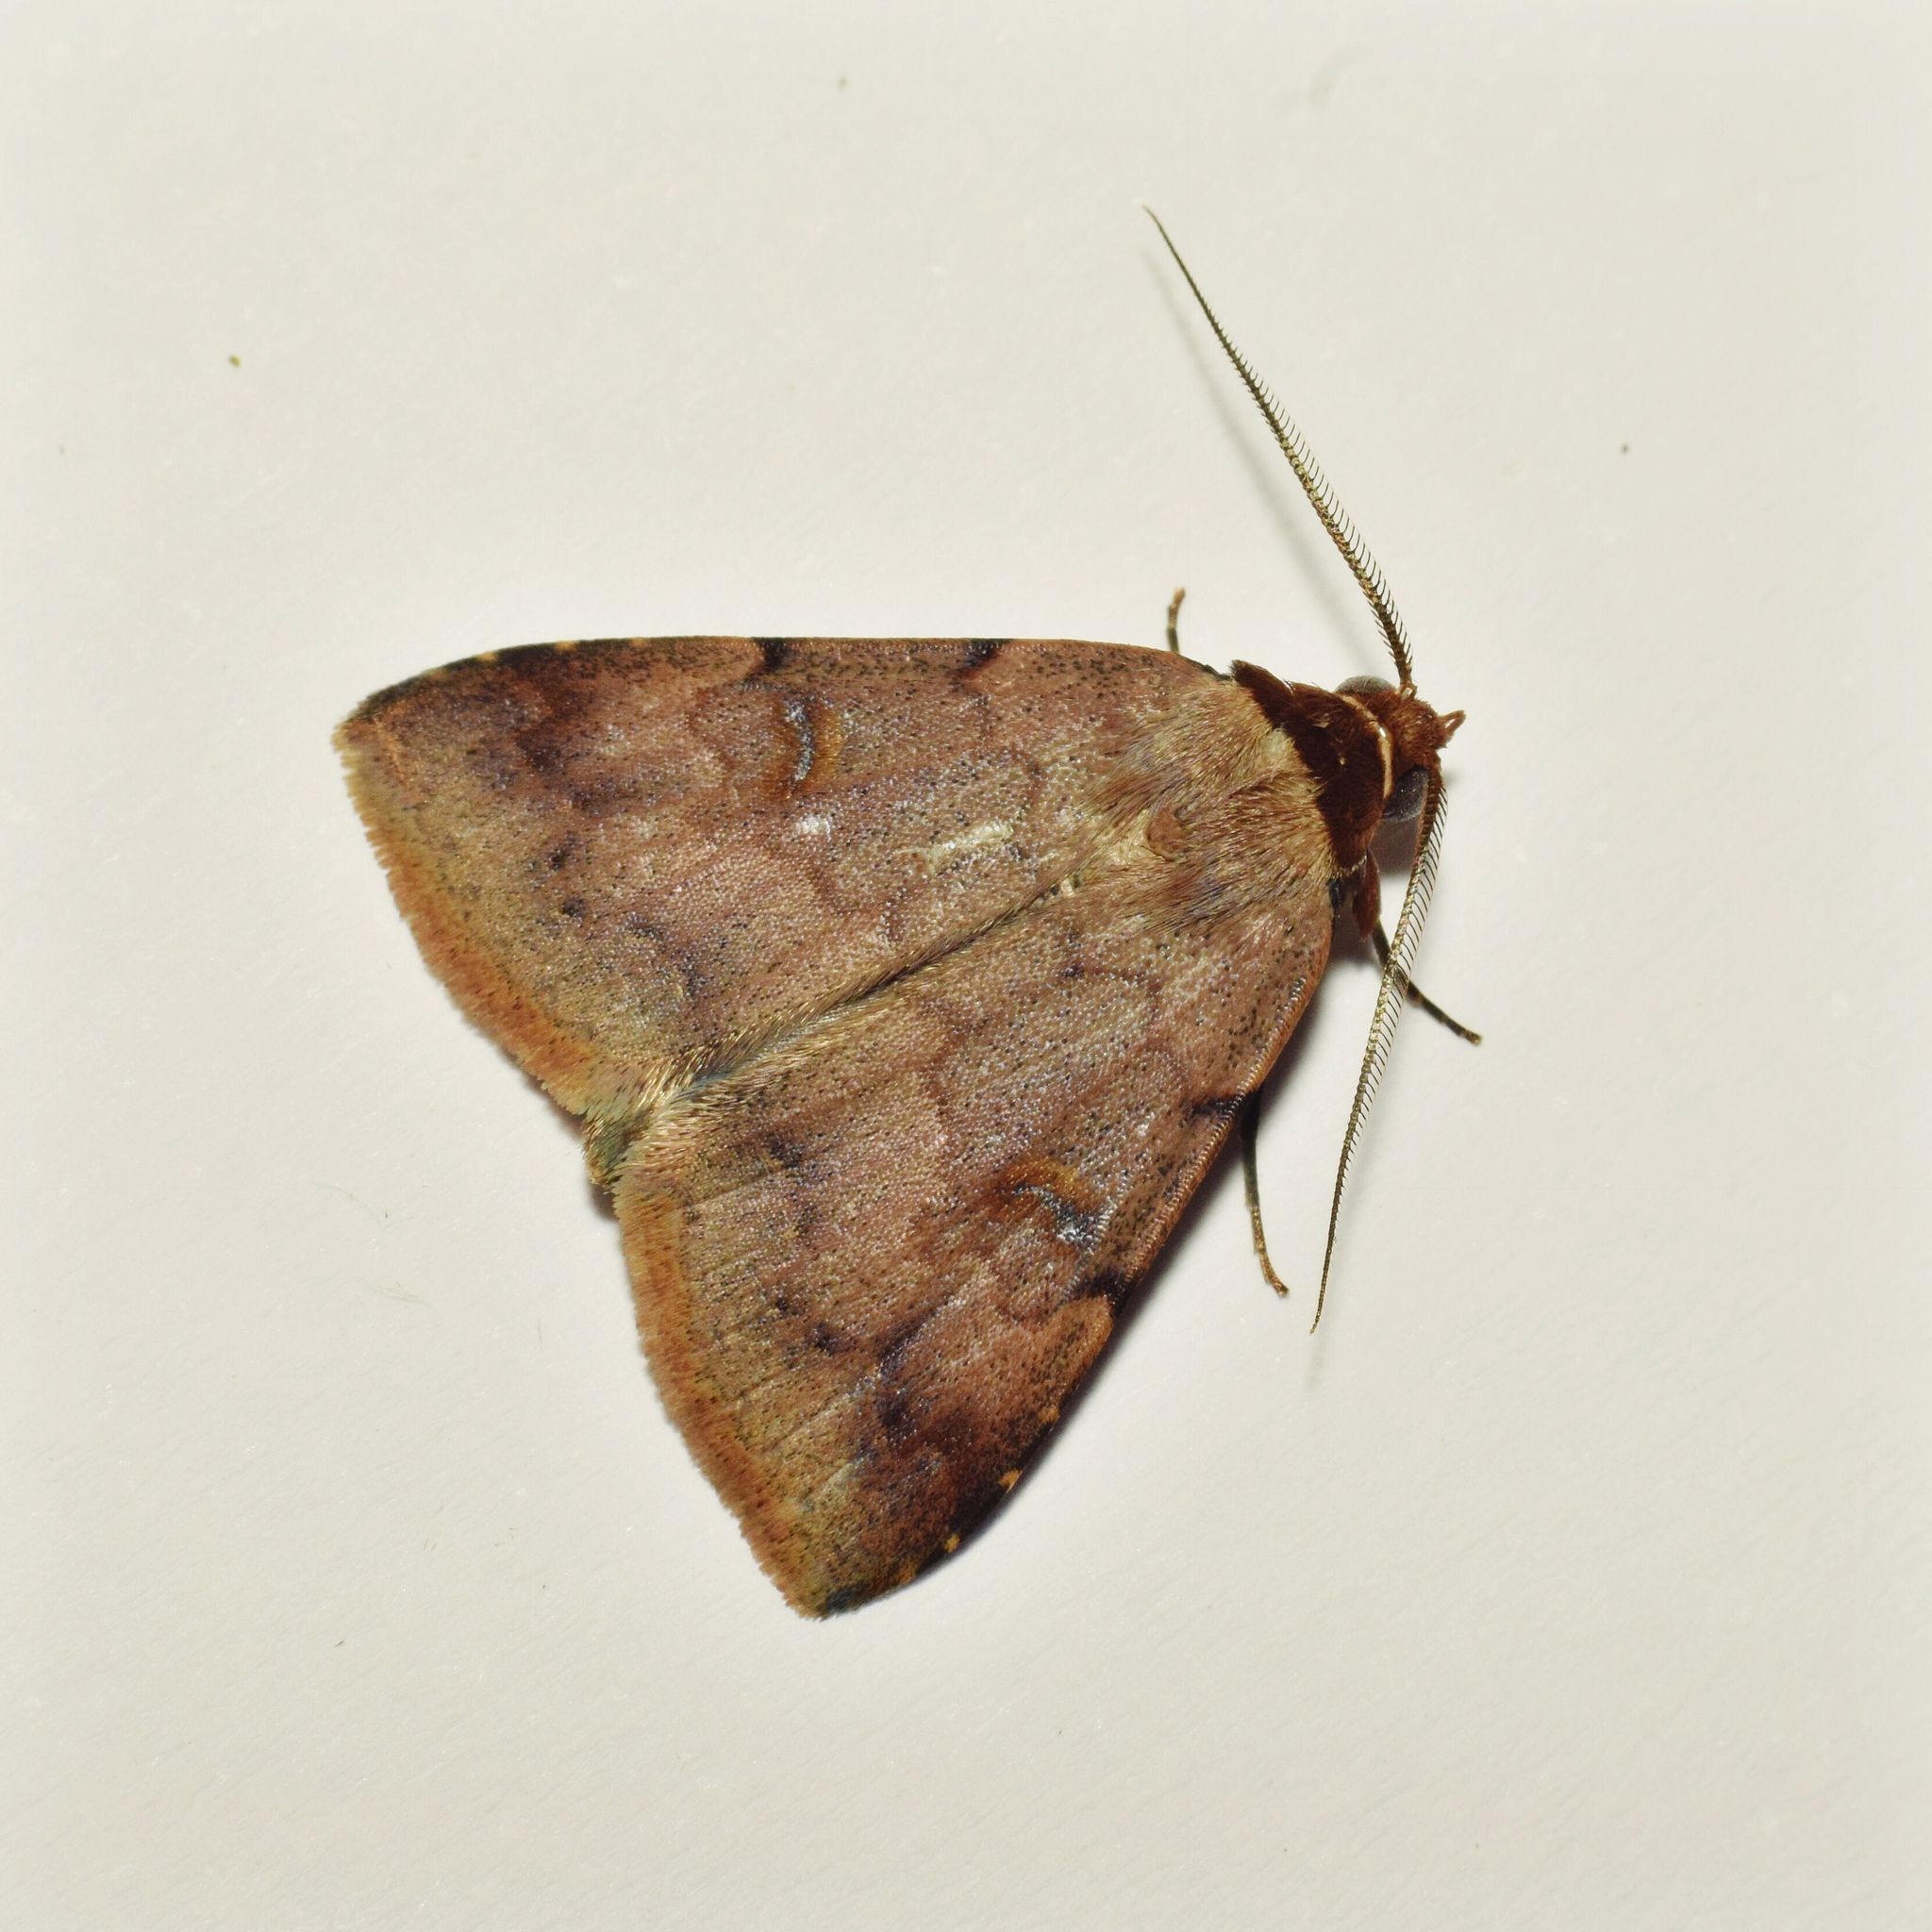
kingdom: Animalia
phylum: Arthropoda
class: Insecta
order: Lepidoptera
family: Erebidae
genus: Plecoptera
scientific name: Plecoptera poderis
